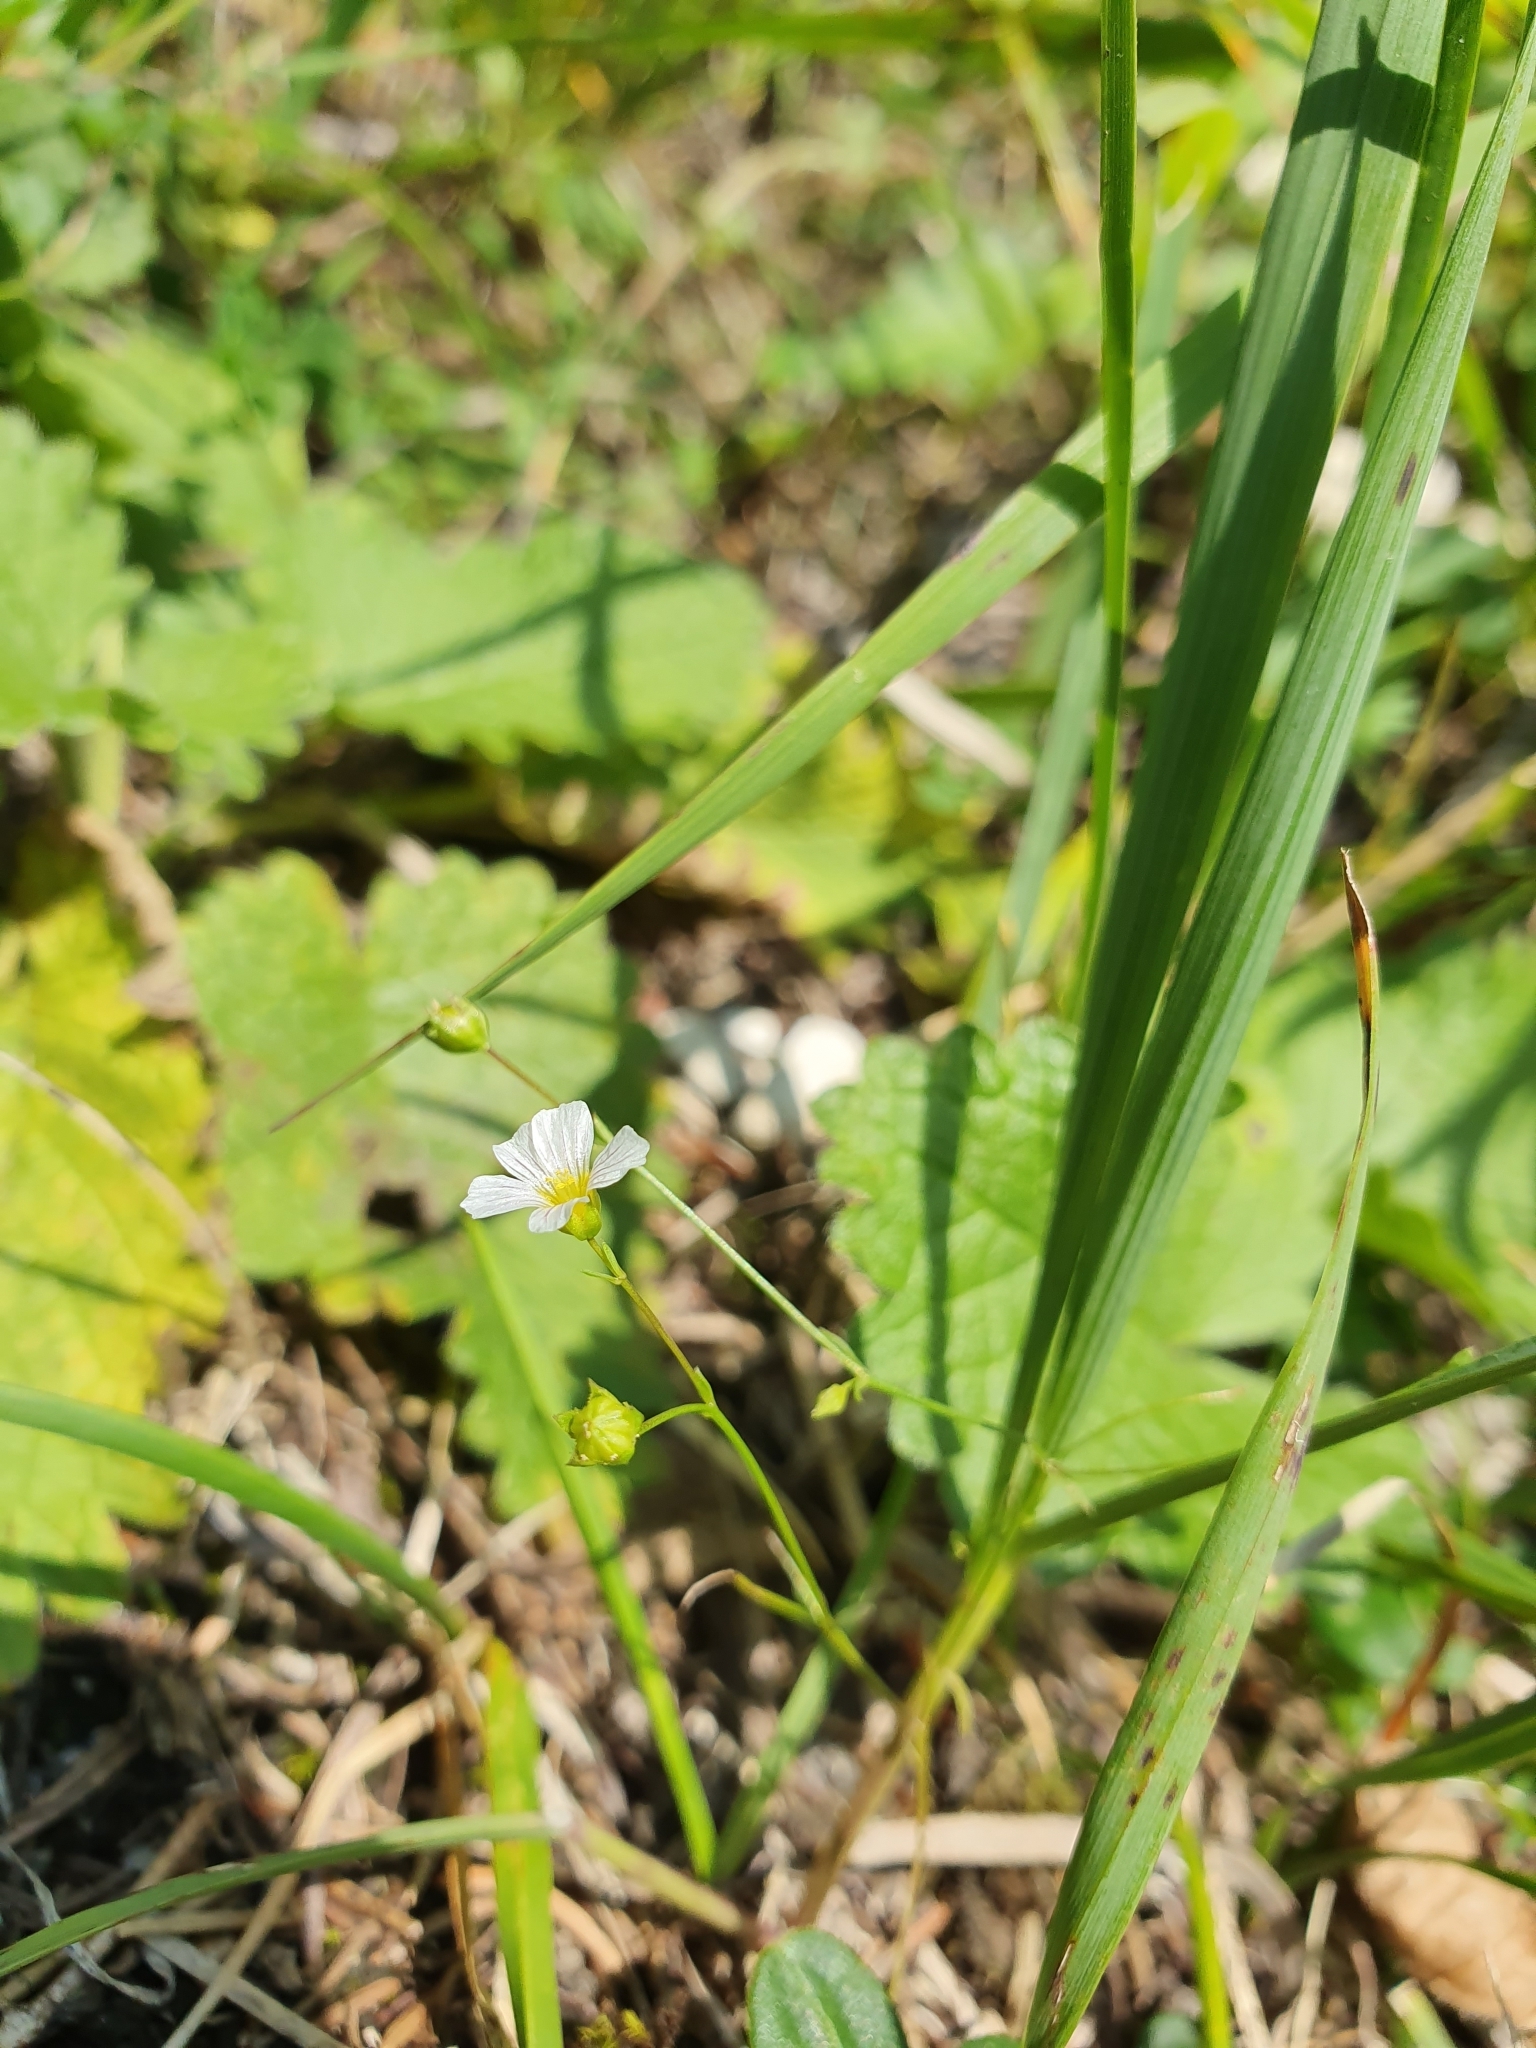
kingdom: Plantae
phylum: Tracheophyta
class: Magnoliopsida
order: Malpighiales
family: Linaceae
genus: Linum
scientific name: Linum catharticum
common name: Fairy flax
